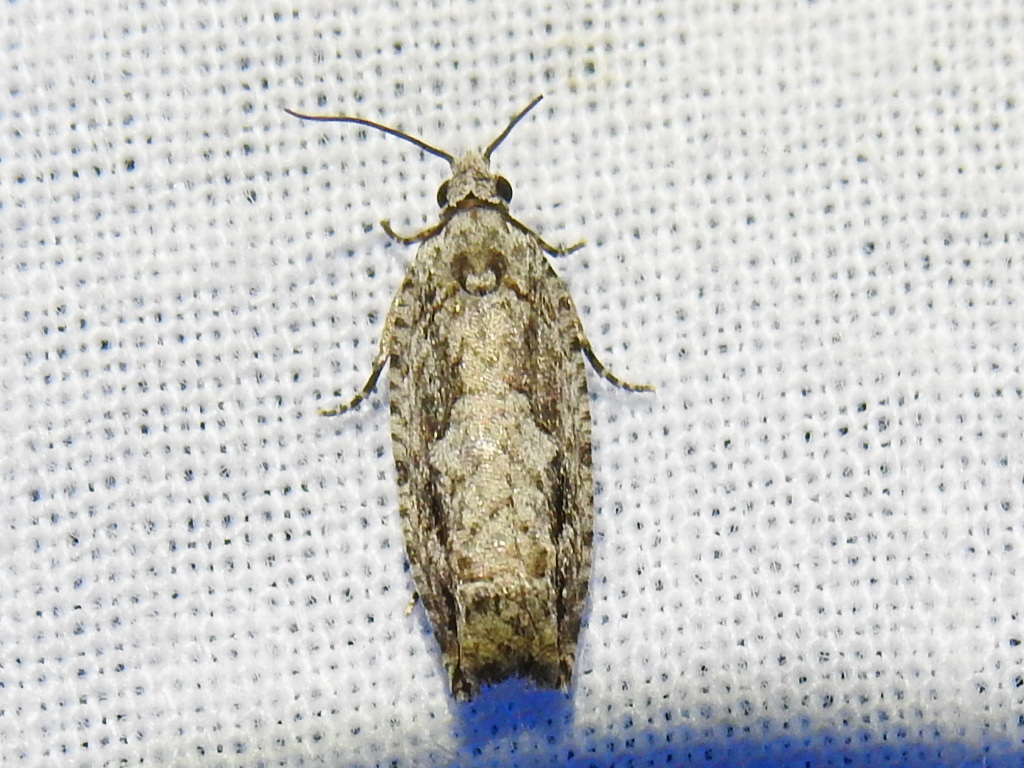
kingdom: Animalia
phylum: Arthropoda
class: Insecta
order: Lepidoptera
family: Tortricidae
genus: Gretchena
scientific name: Gretchena bolliana
